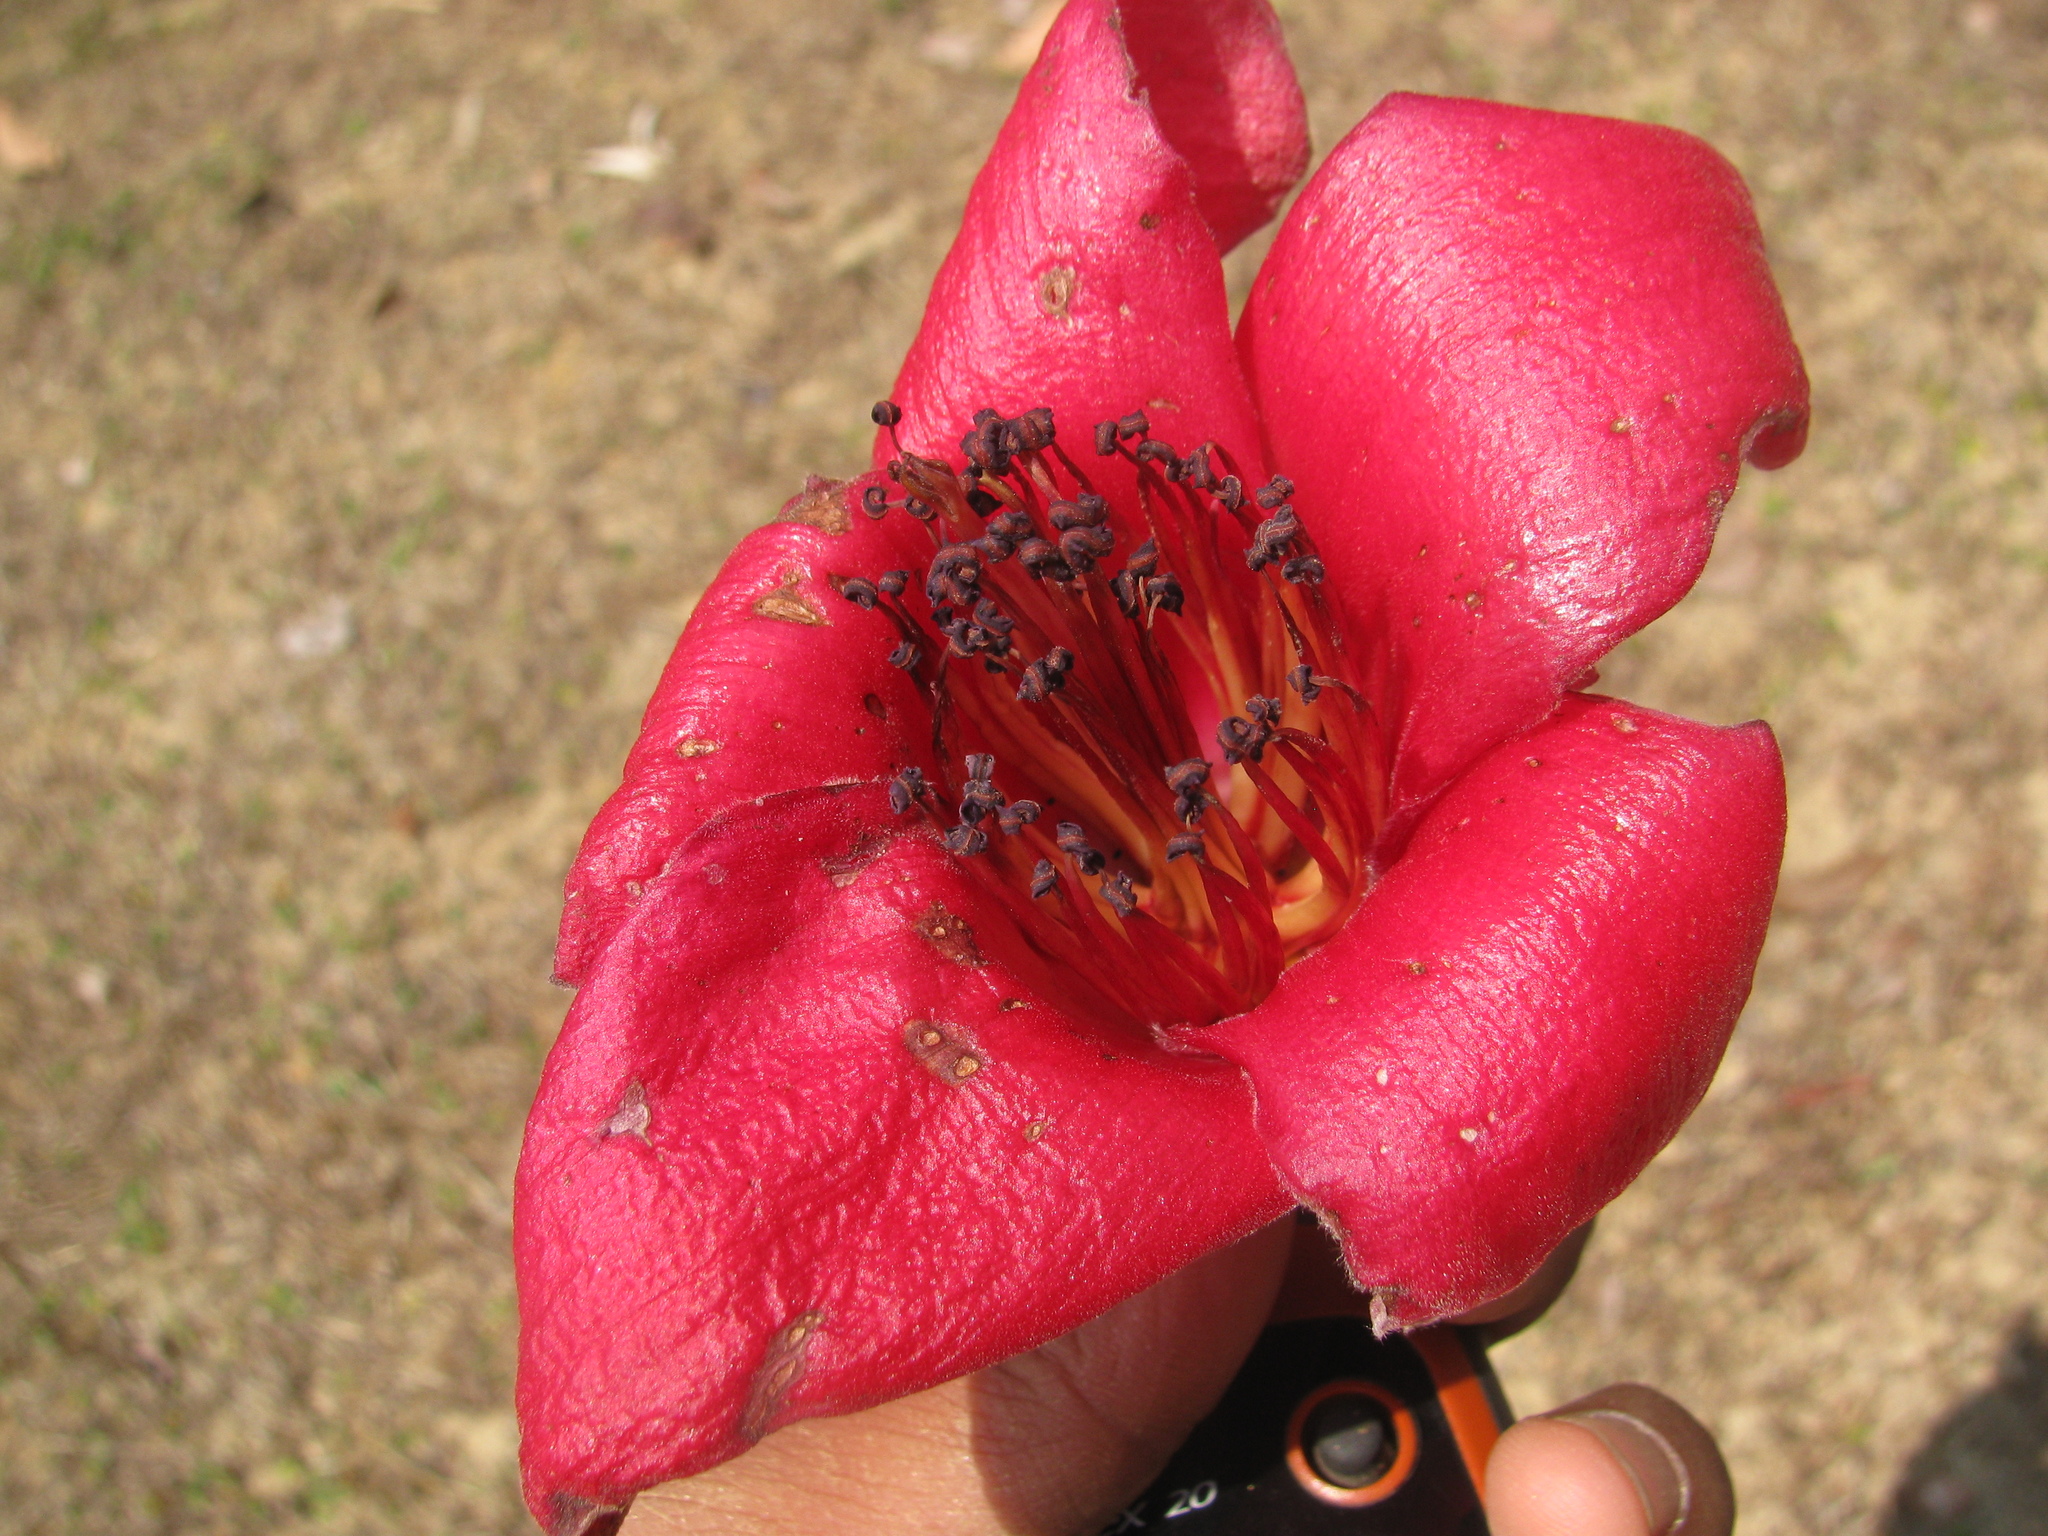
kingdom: Plantae
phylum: Tracheophyta
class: Magnoliopsida
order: Malvales
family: Malvaceae
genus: Bombax
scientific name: Bombax ceiba
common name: Northern-cottonwood
